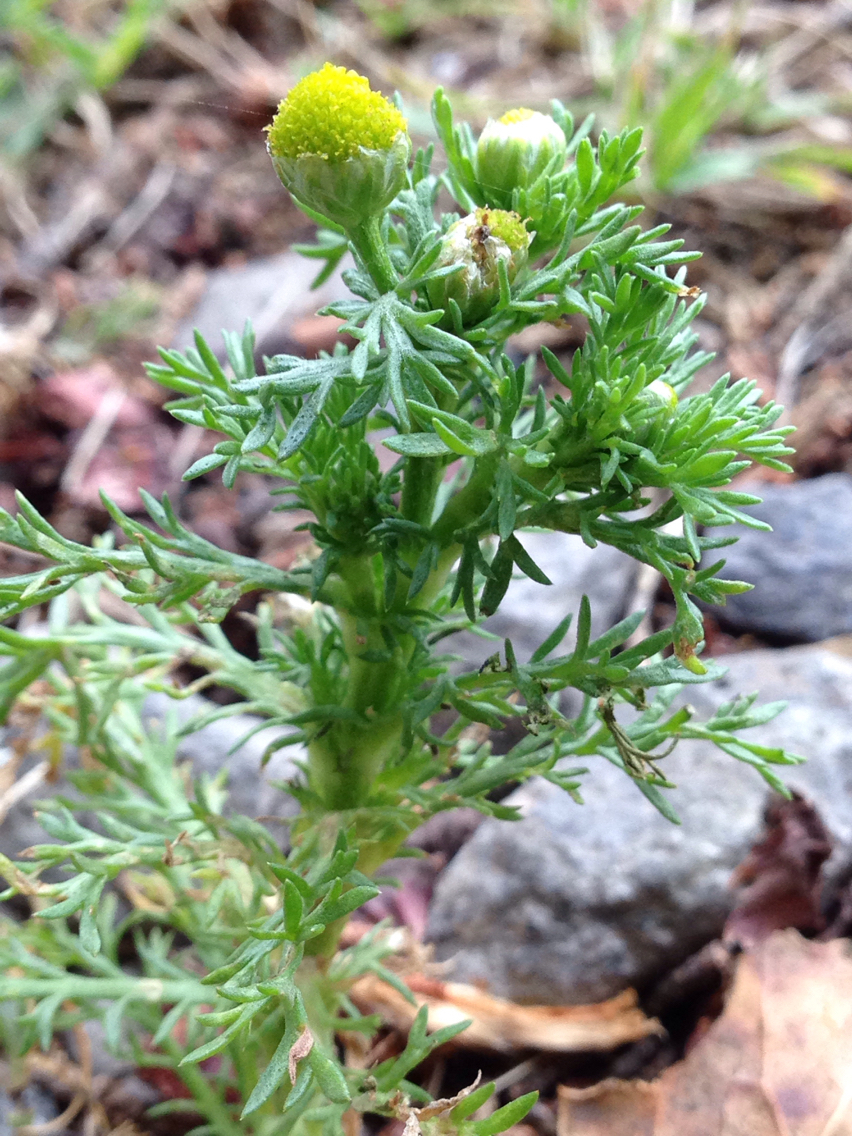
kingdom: Plantae
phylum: Tracheophyta
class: Magnoliopsida
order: Asterales
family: Asteraceae
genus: Matricaria
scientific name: Matricaria discoidea
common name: Disc mayweed
